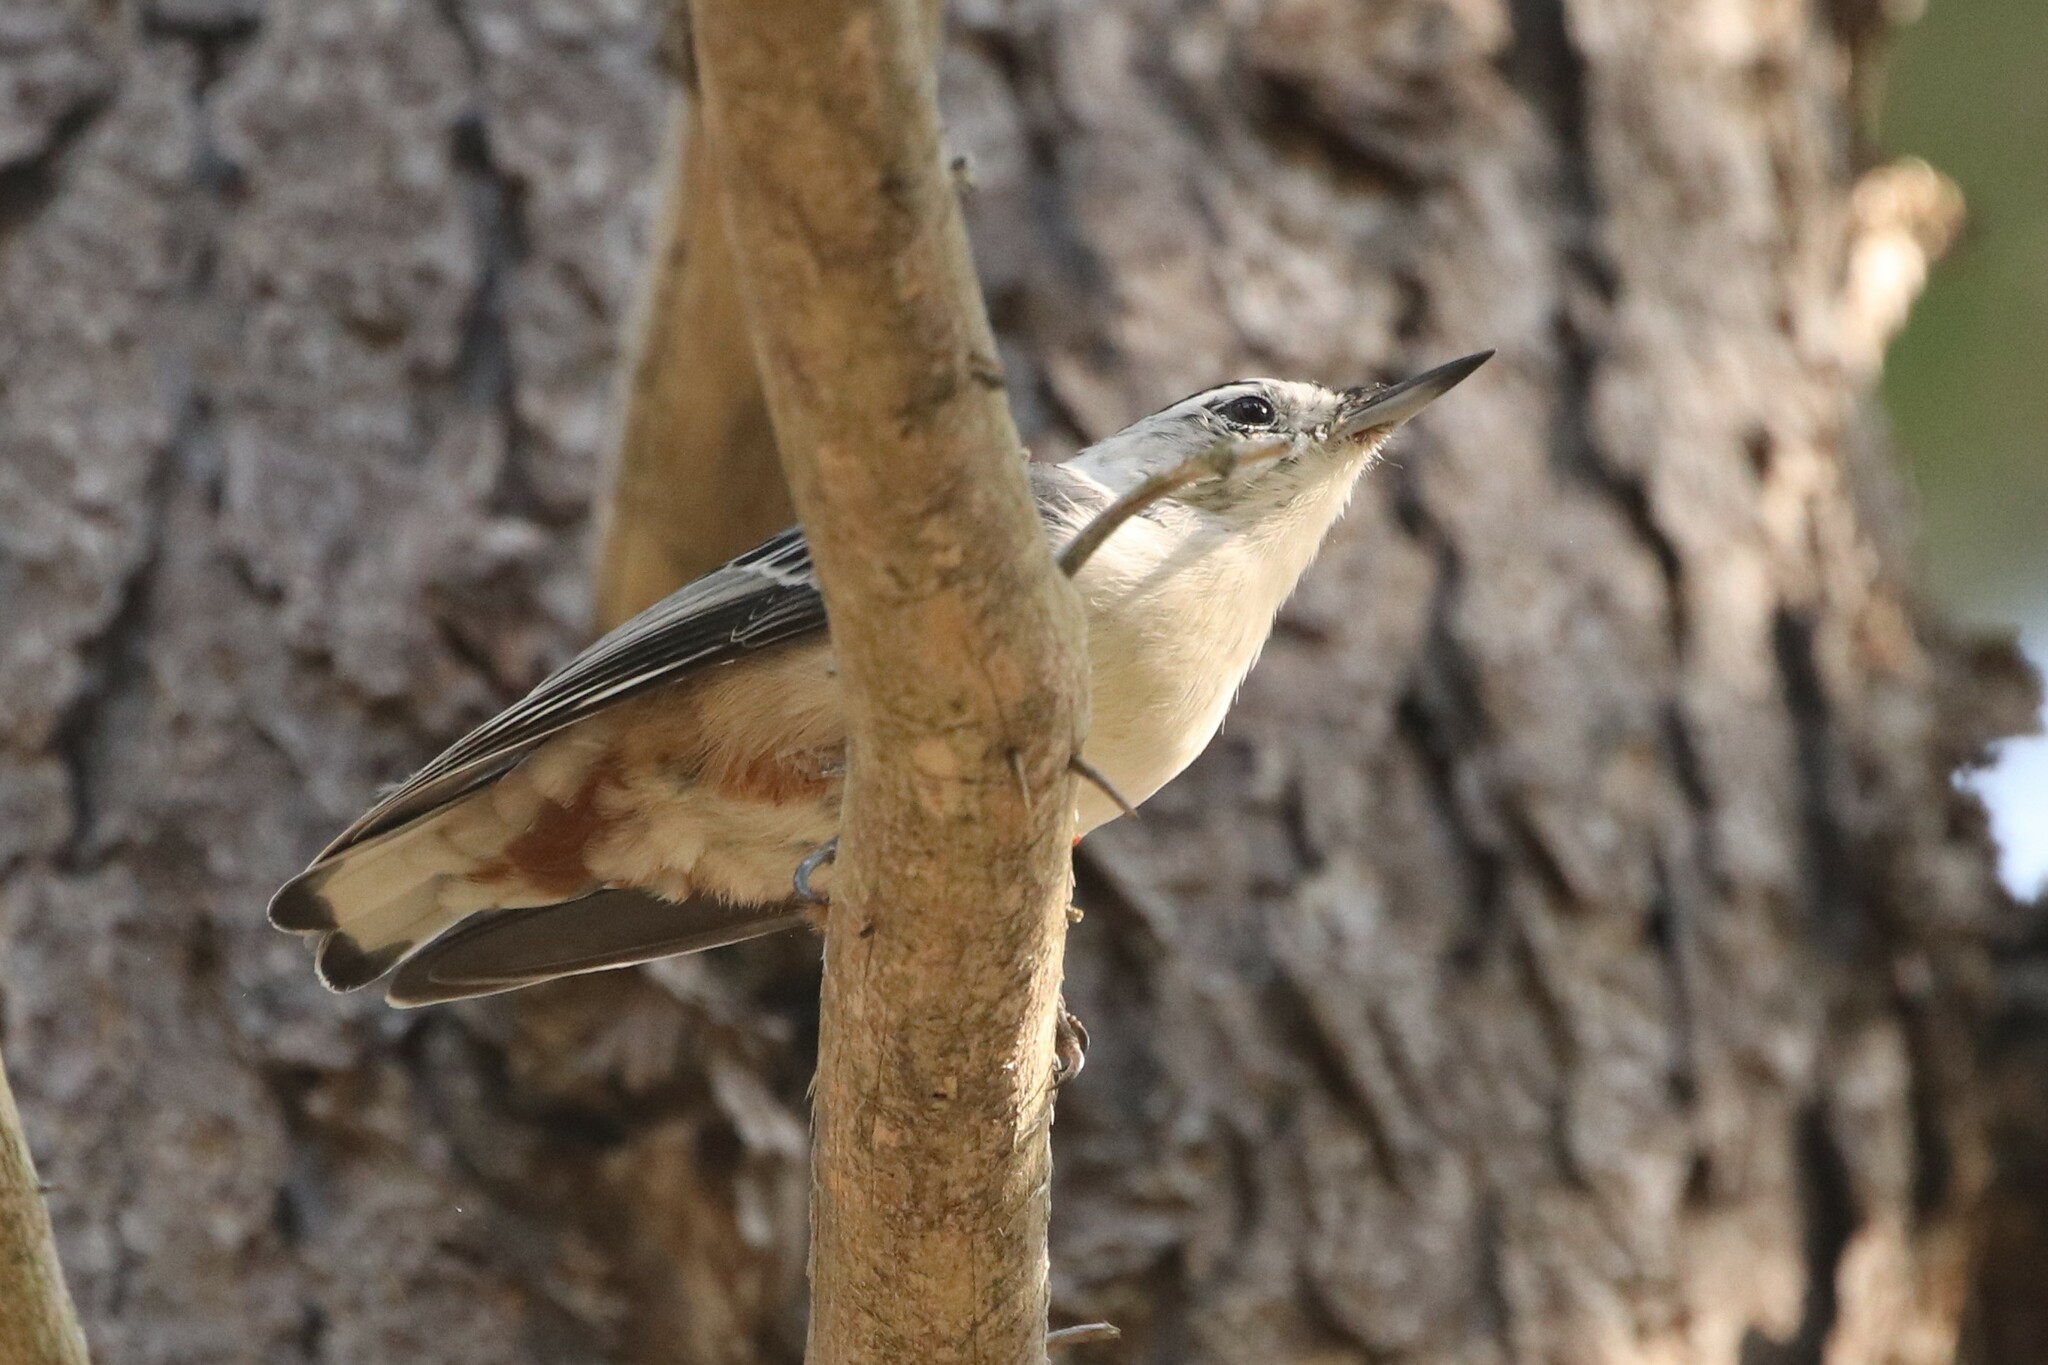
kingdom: Animalia
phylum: Chordata
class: Aves
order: Passeriformes
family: Sittidae
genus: Sitta
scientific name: Sitta carolinensis
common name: White-breasted nuthatch
